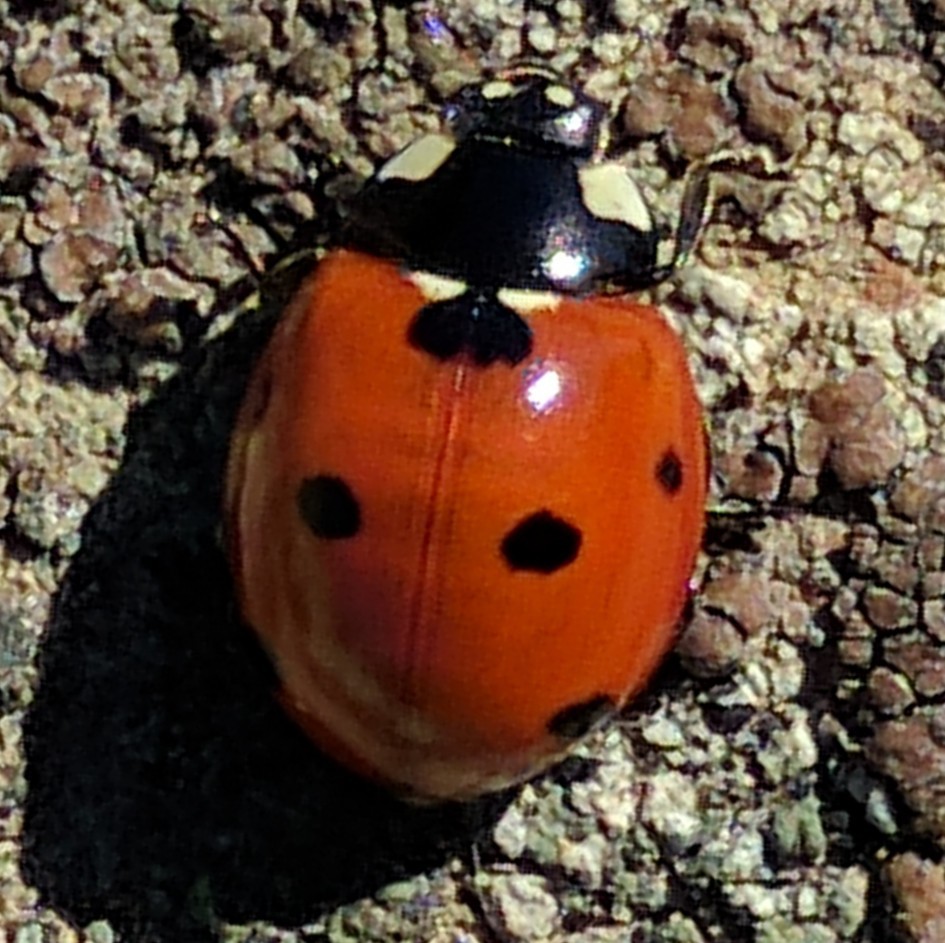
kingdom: Animalia
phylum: Arthropoda
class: Insecta
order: Coleoptera
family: Coccinellidae
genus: Coccinella
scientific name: Coccinella septempunctata
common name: Sevenspotted lady beetle
